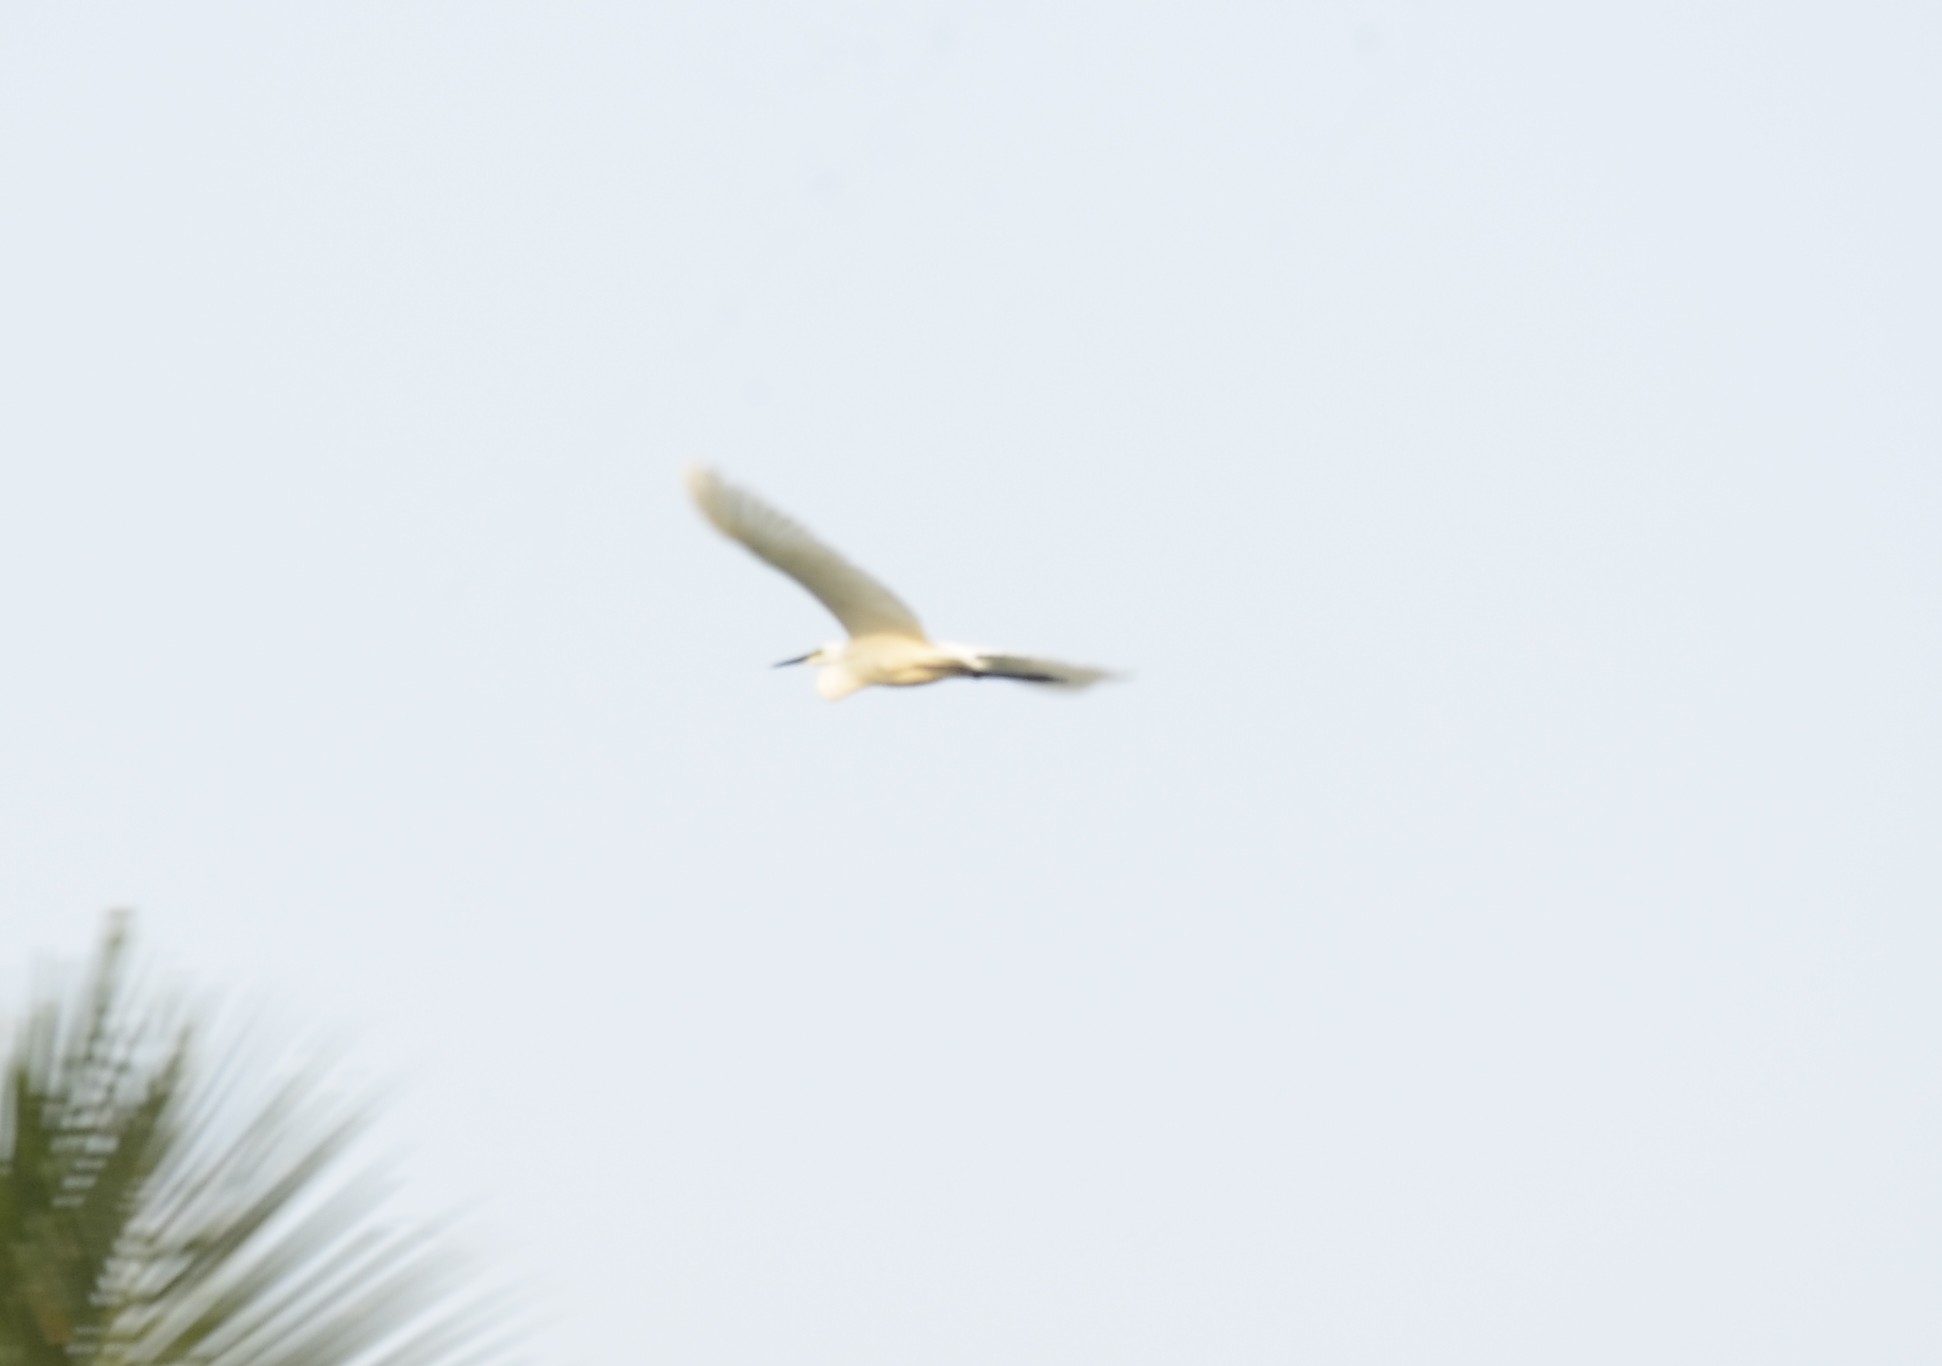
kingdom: Animalia
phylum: Chordata
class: Aves
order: Pelecaniformes
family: Ardeidae
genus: Egretta
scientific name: Egretta garzetta
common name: Little egret
